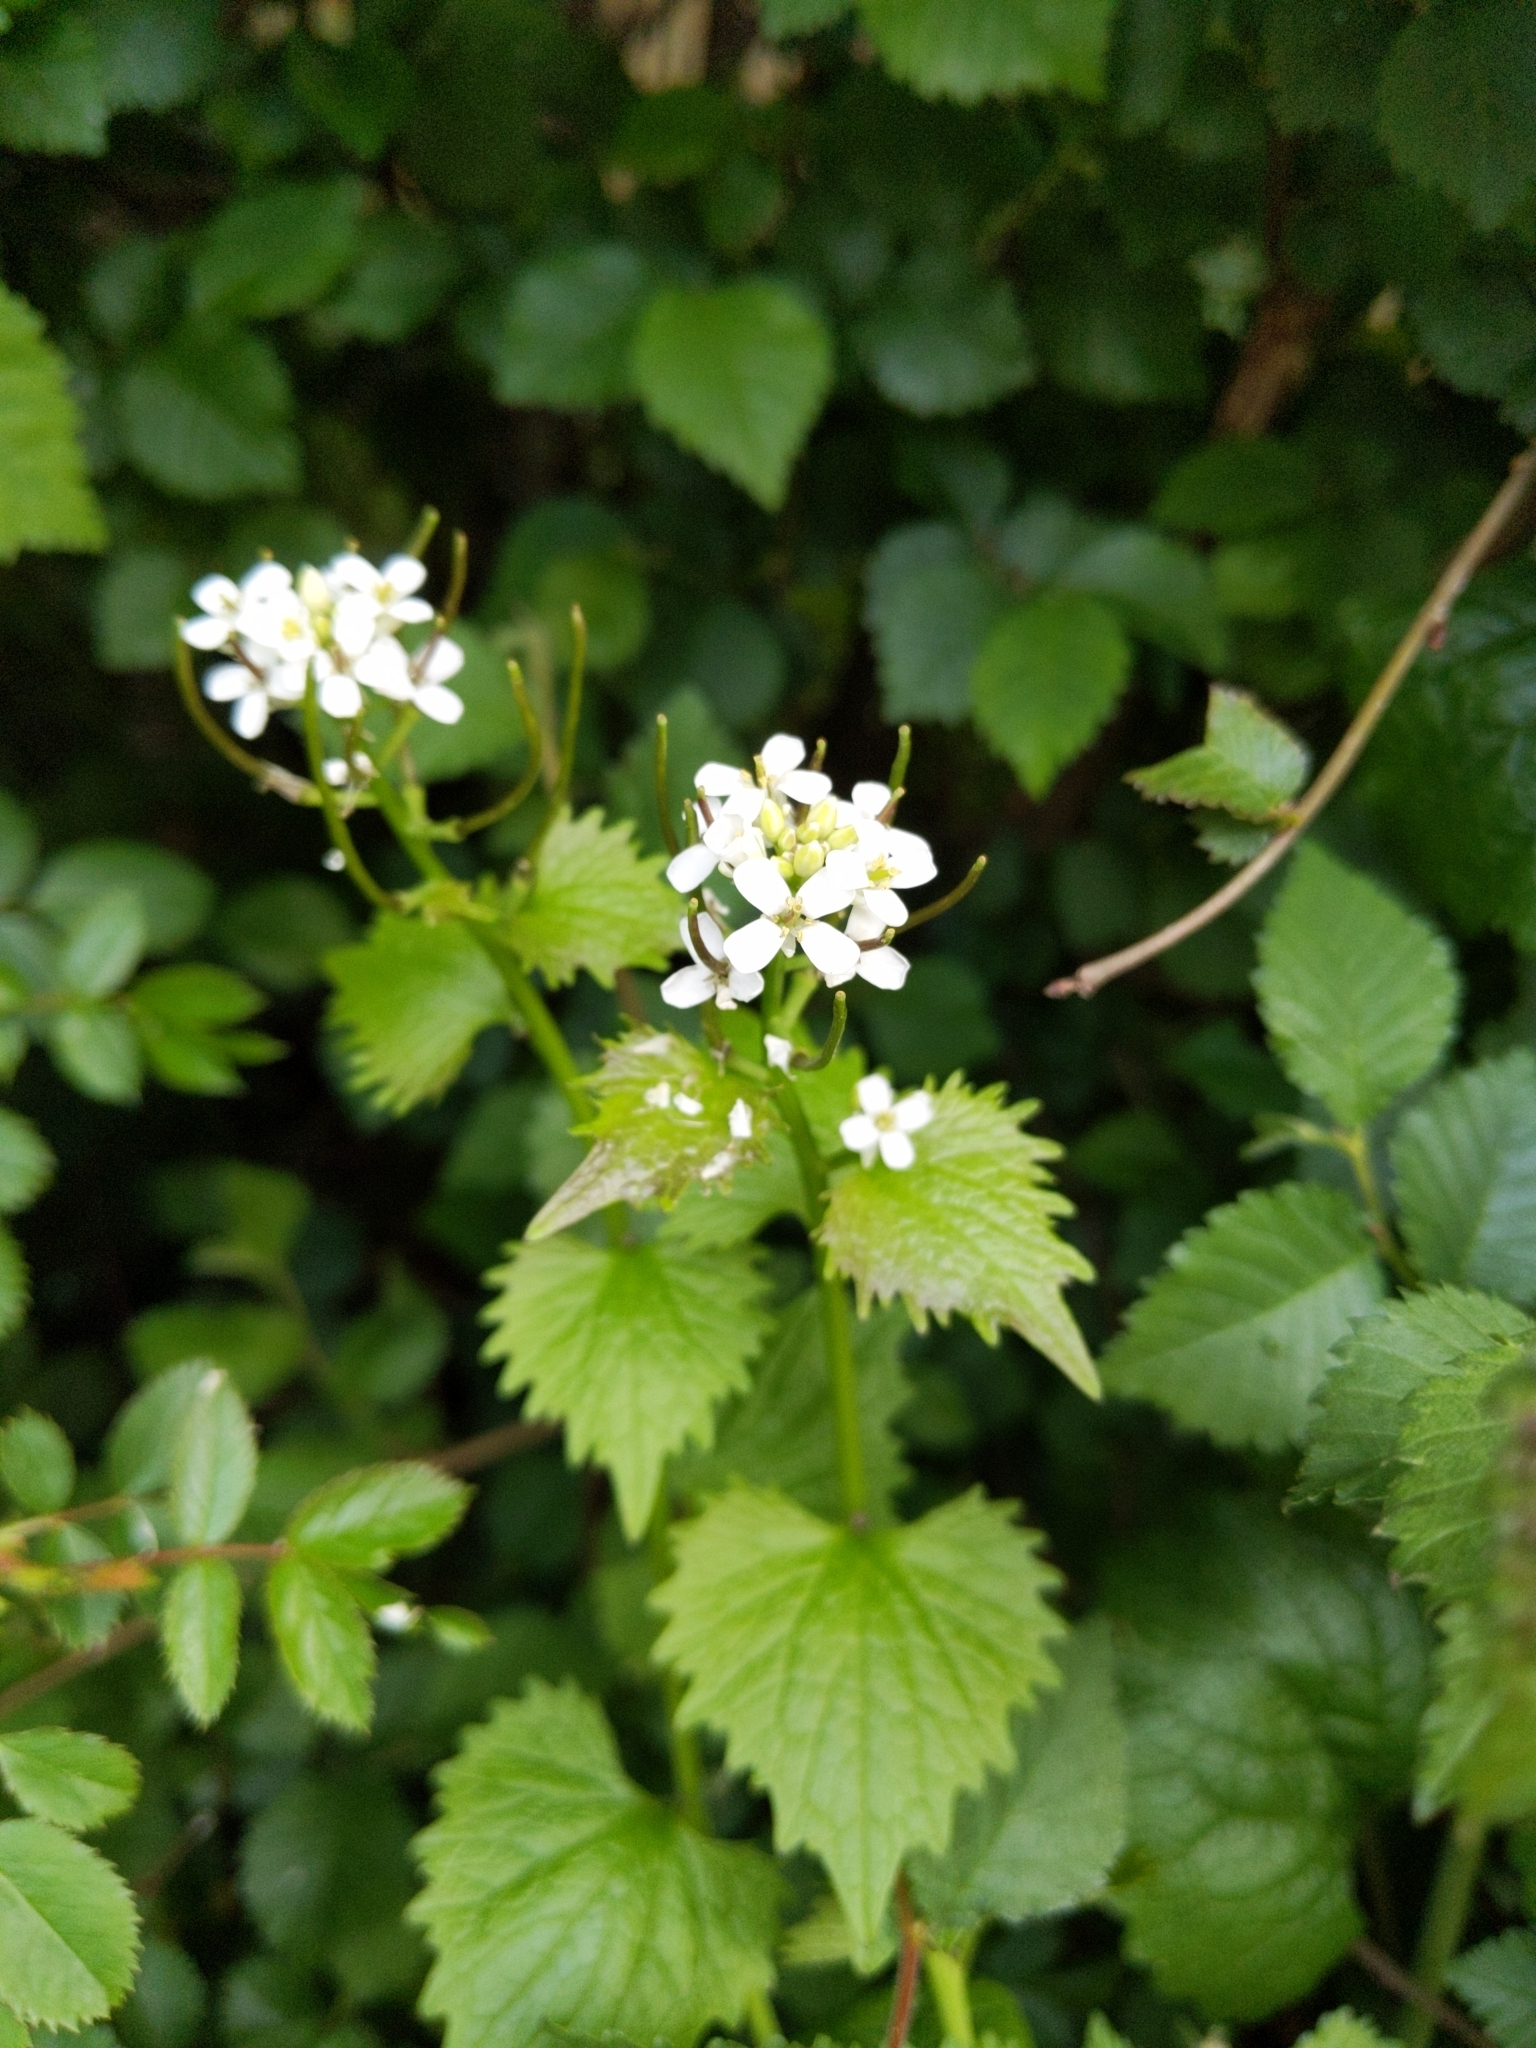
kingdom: Plantae
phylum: Tracheophyta
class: Magnoliopsida
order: Brassicales
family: Brassicaceae
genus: Alliaria
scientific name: Alliaria petiolata
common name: Garlic mustard
